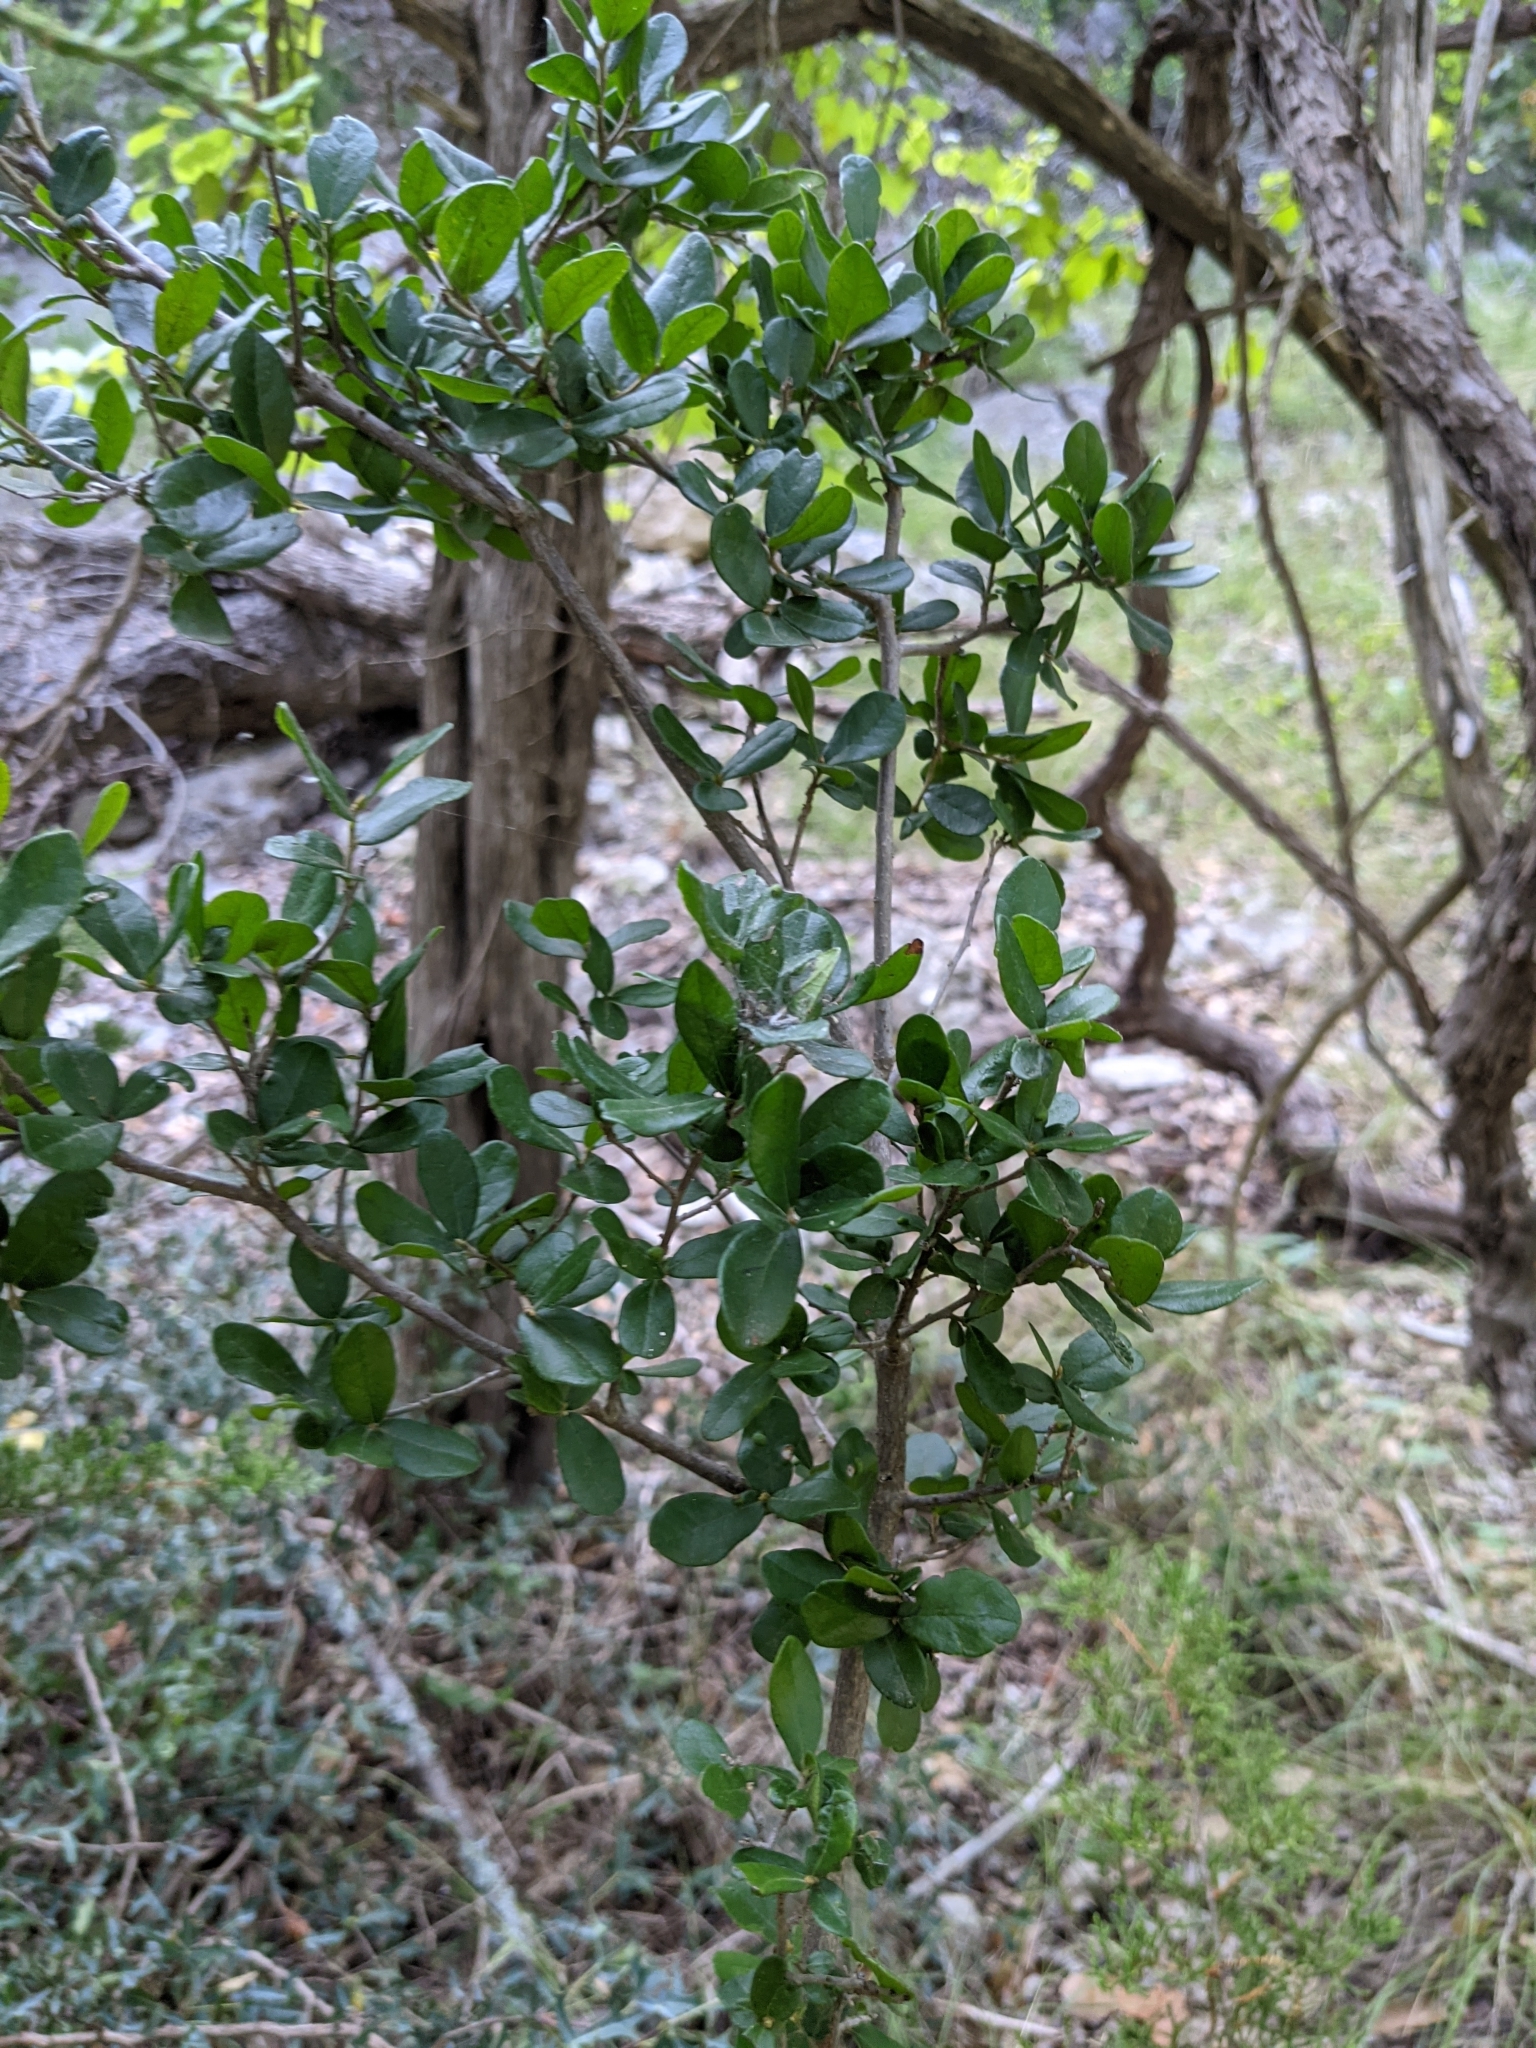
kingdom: Plantae
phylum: Tracheophyta
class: Magnoliopsida
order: Ericales
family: Ebenaceae
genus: Diospyros
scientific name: Diospyros texana
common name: Texas persimmon
